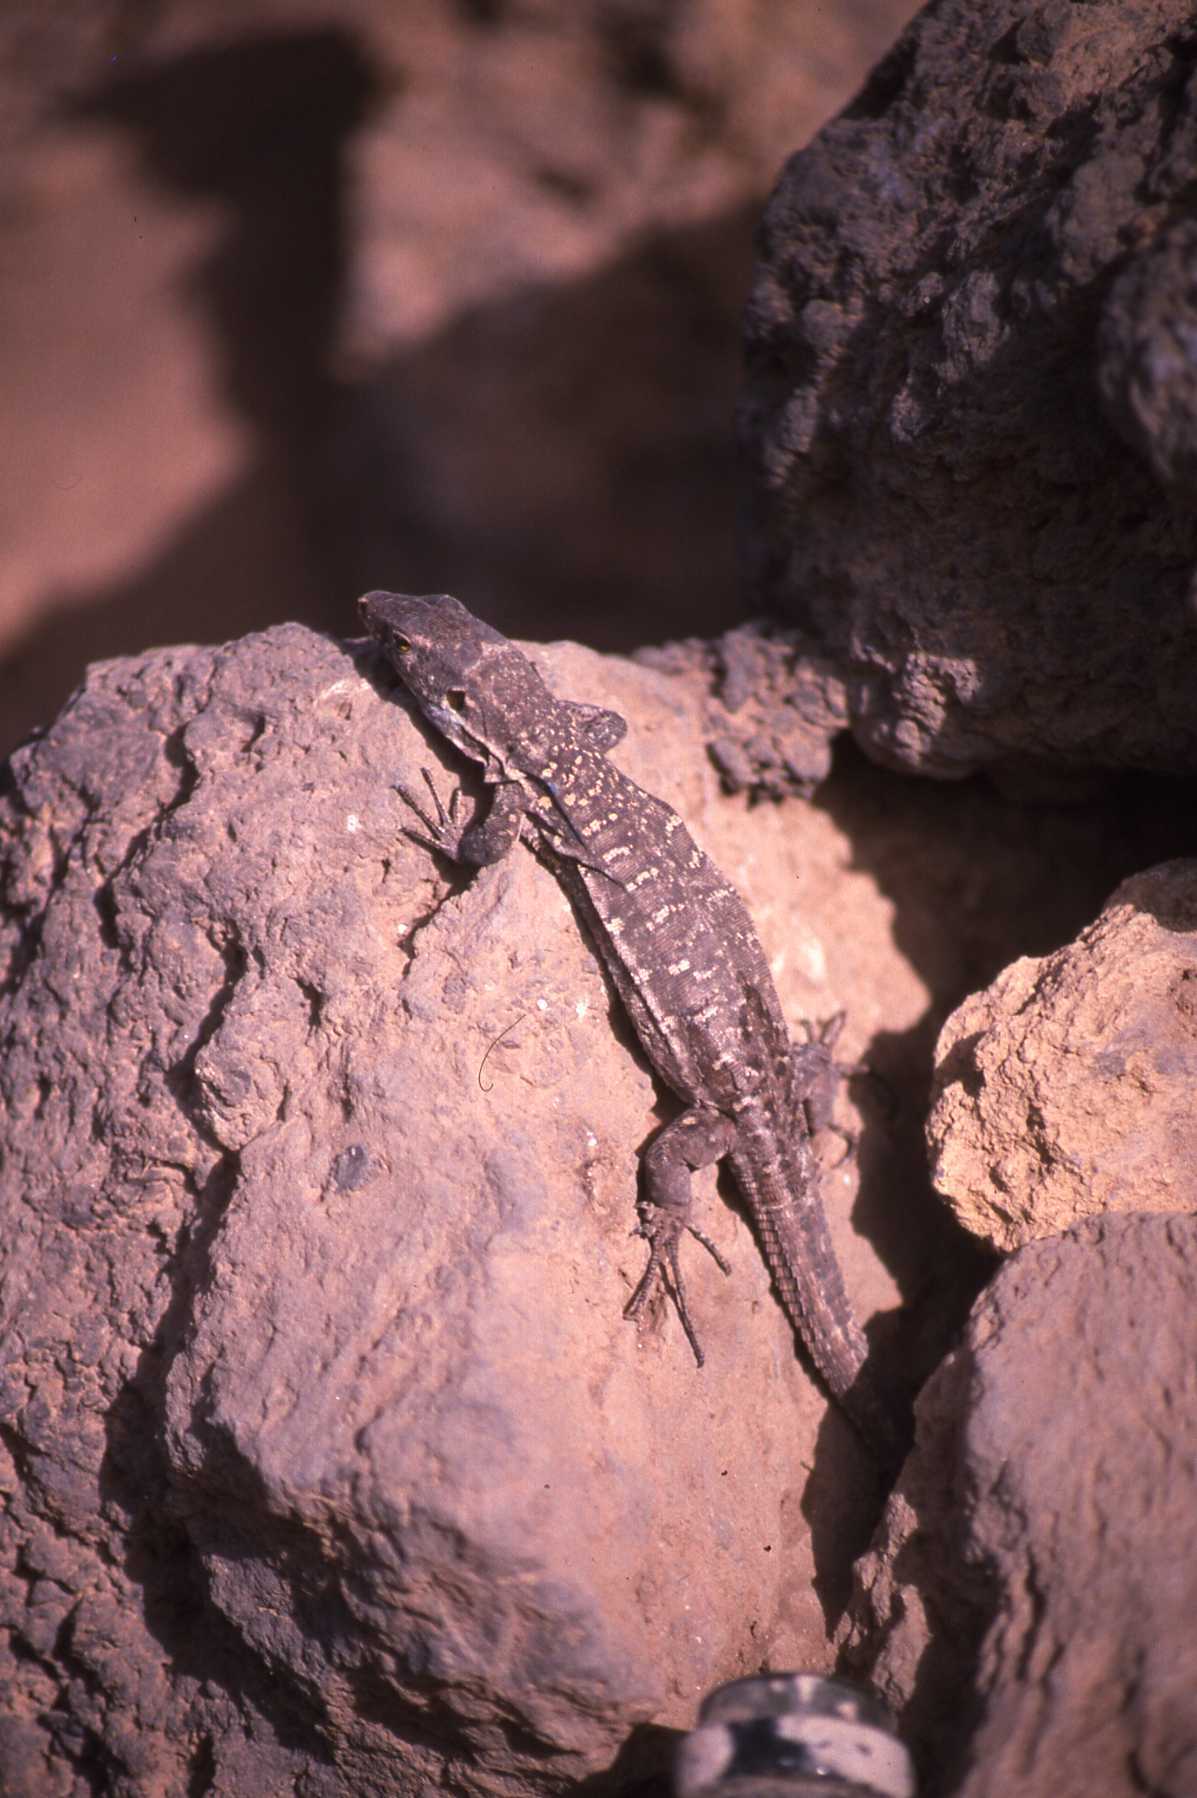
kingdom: Animalia
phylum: Chordata
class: Squamata
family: Lacertidae
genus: Gallotia
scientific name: Gallotia galloti
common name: Gallot's lizard
